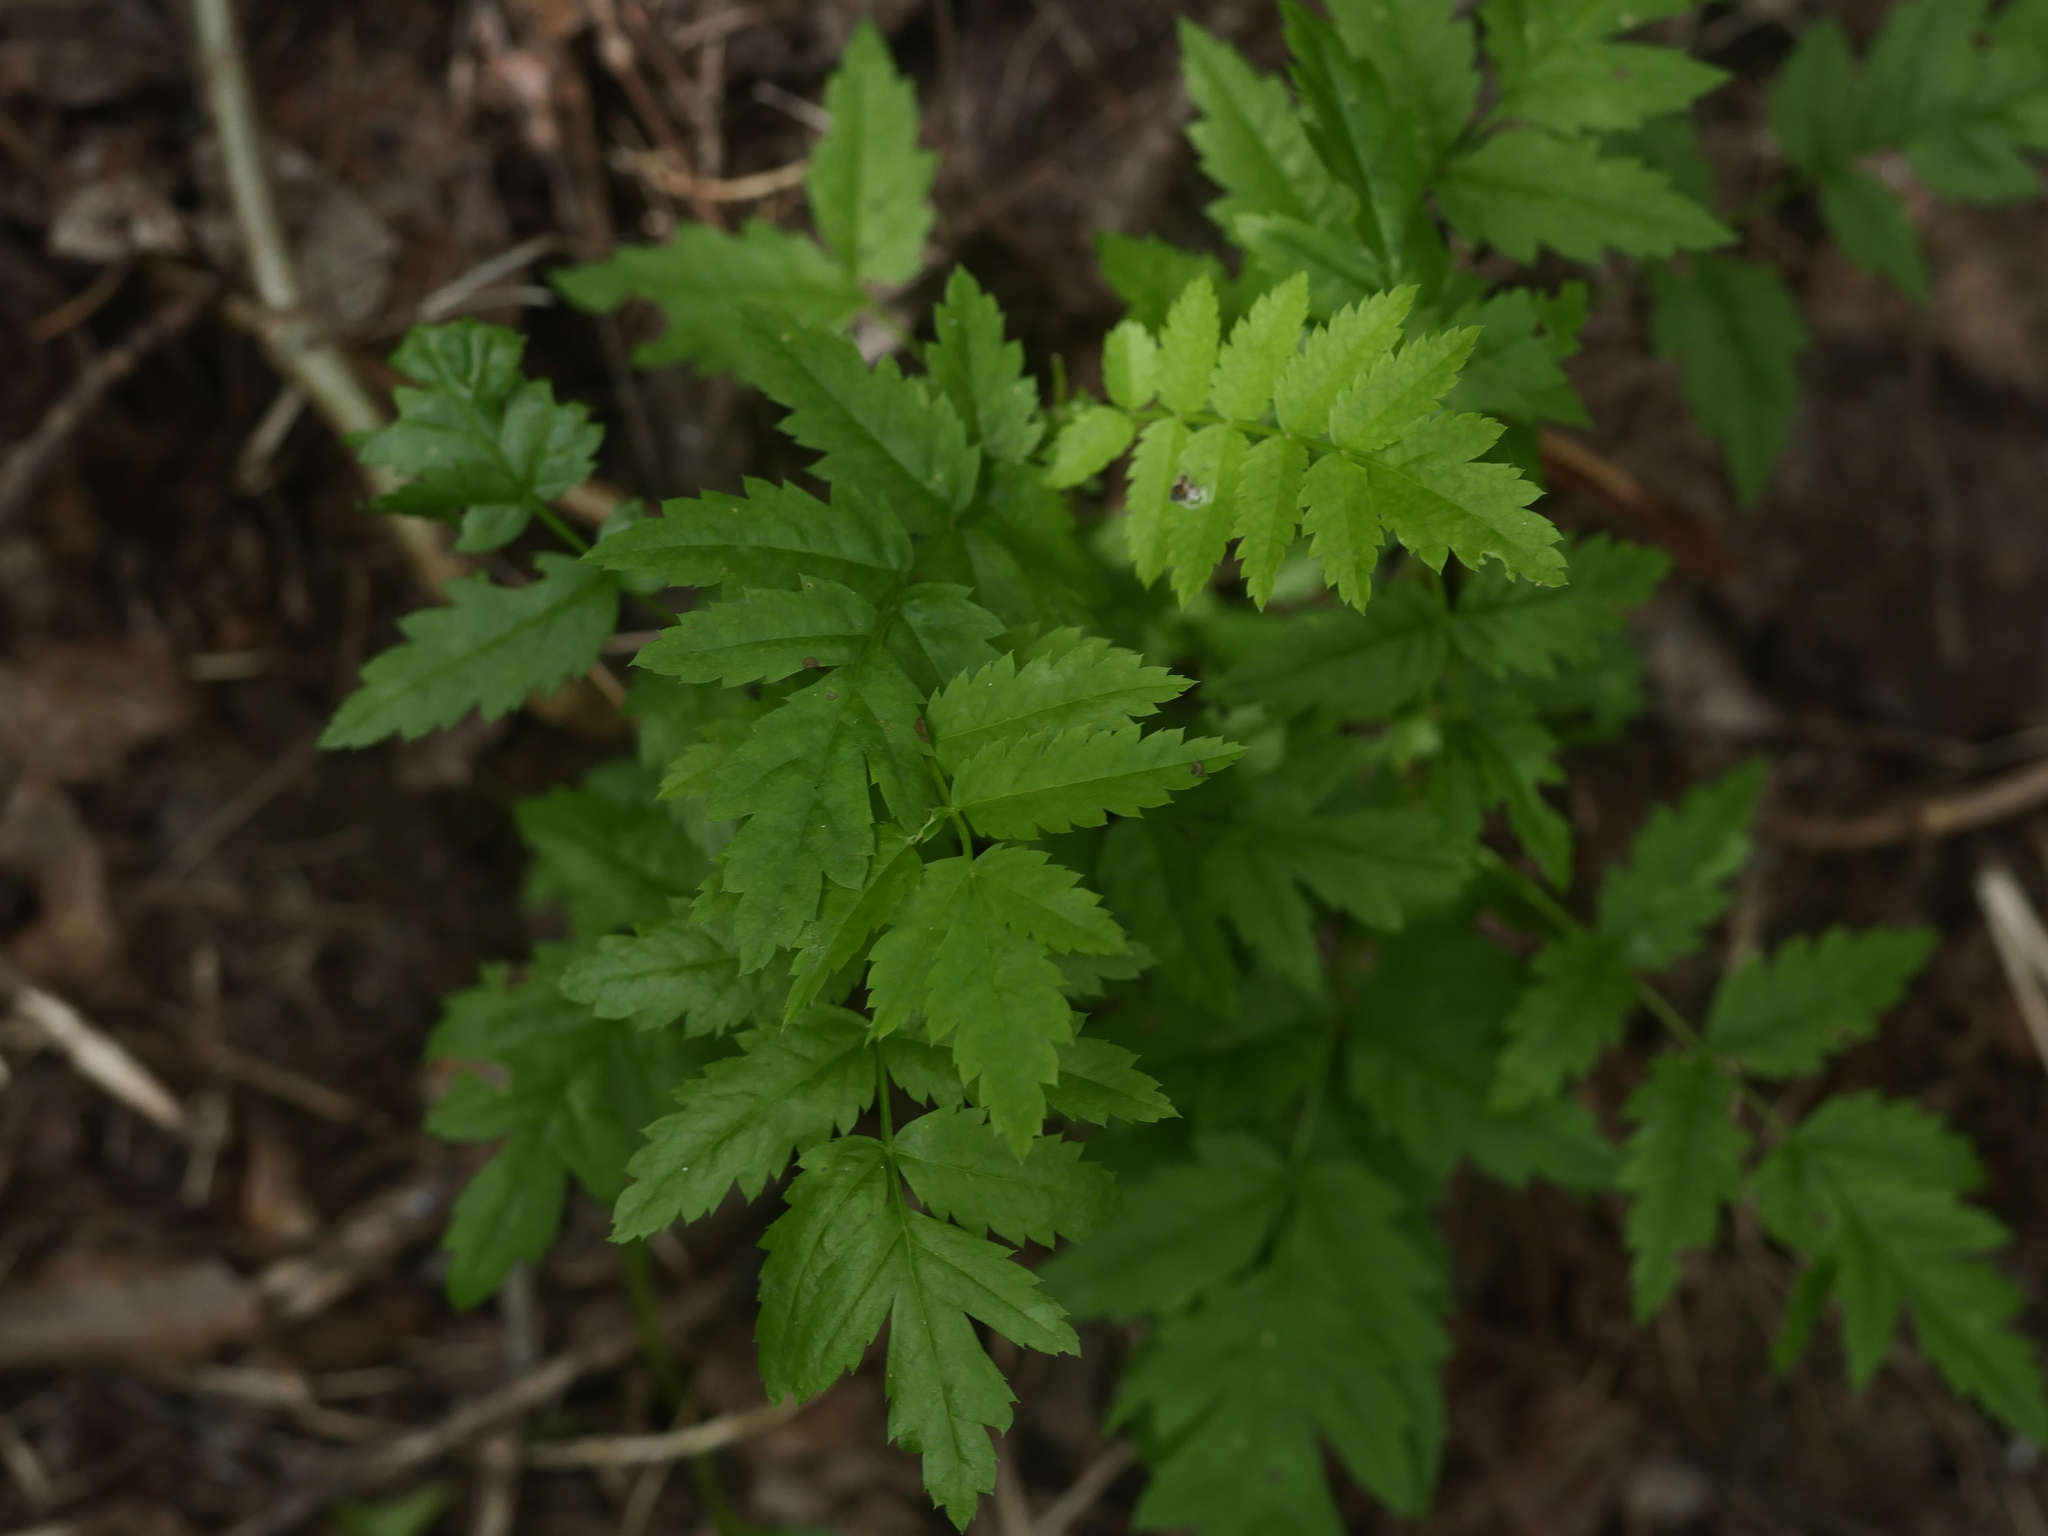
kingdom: Plantae
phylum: Tracheophyta
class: Magnoliopsida
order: Rosales
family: Rosaceae
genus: Sorbus
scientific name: Sorbus aucuparia
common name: Rowan
